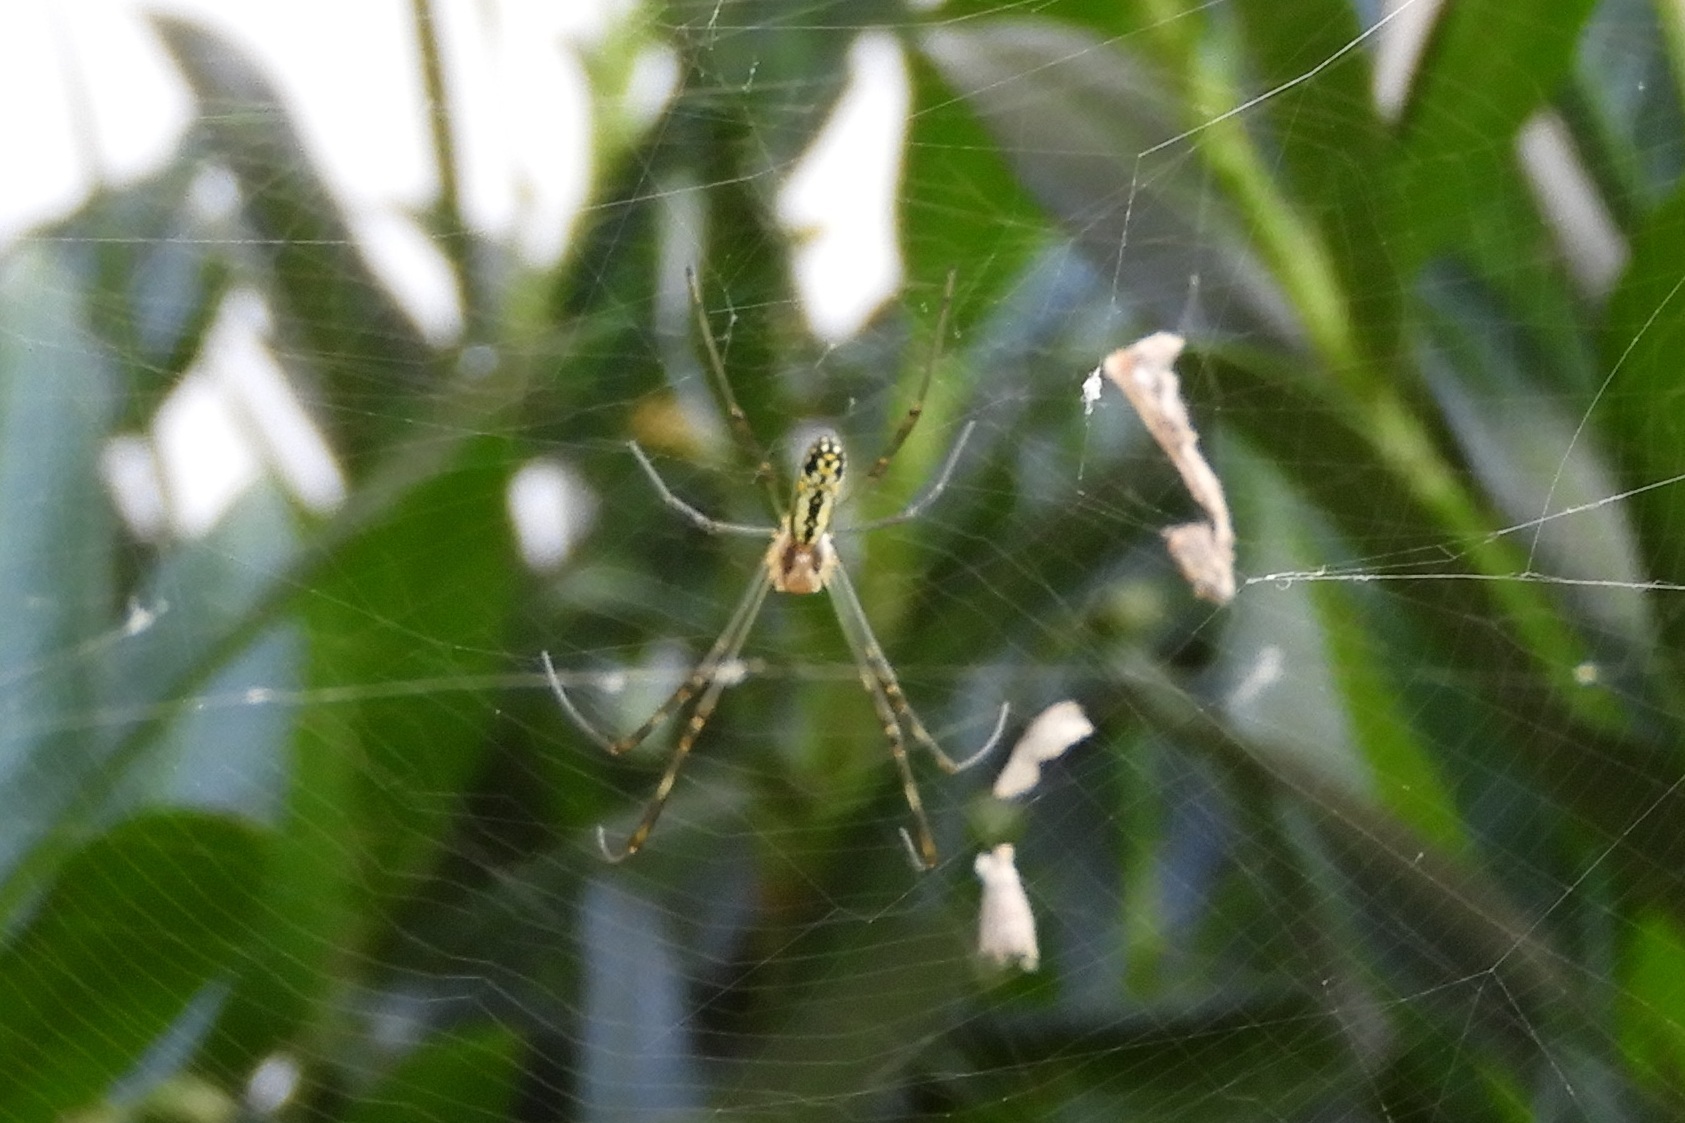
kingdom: Animalia
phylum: Arthropoda
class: Arachnida
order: Araneae
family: Araneidae
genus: Trichonephila
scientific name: Trichonephila clavata
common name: Jorō spider
